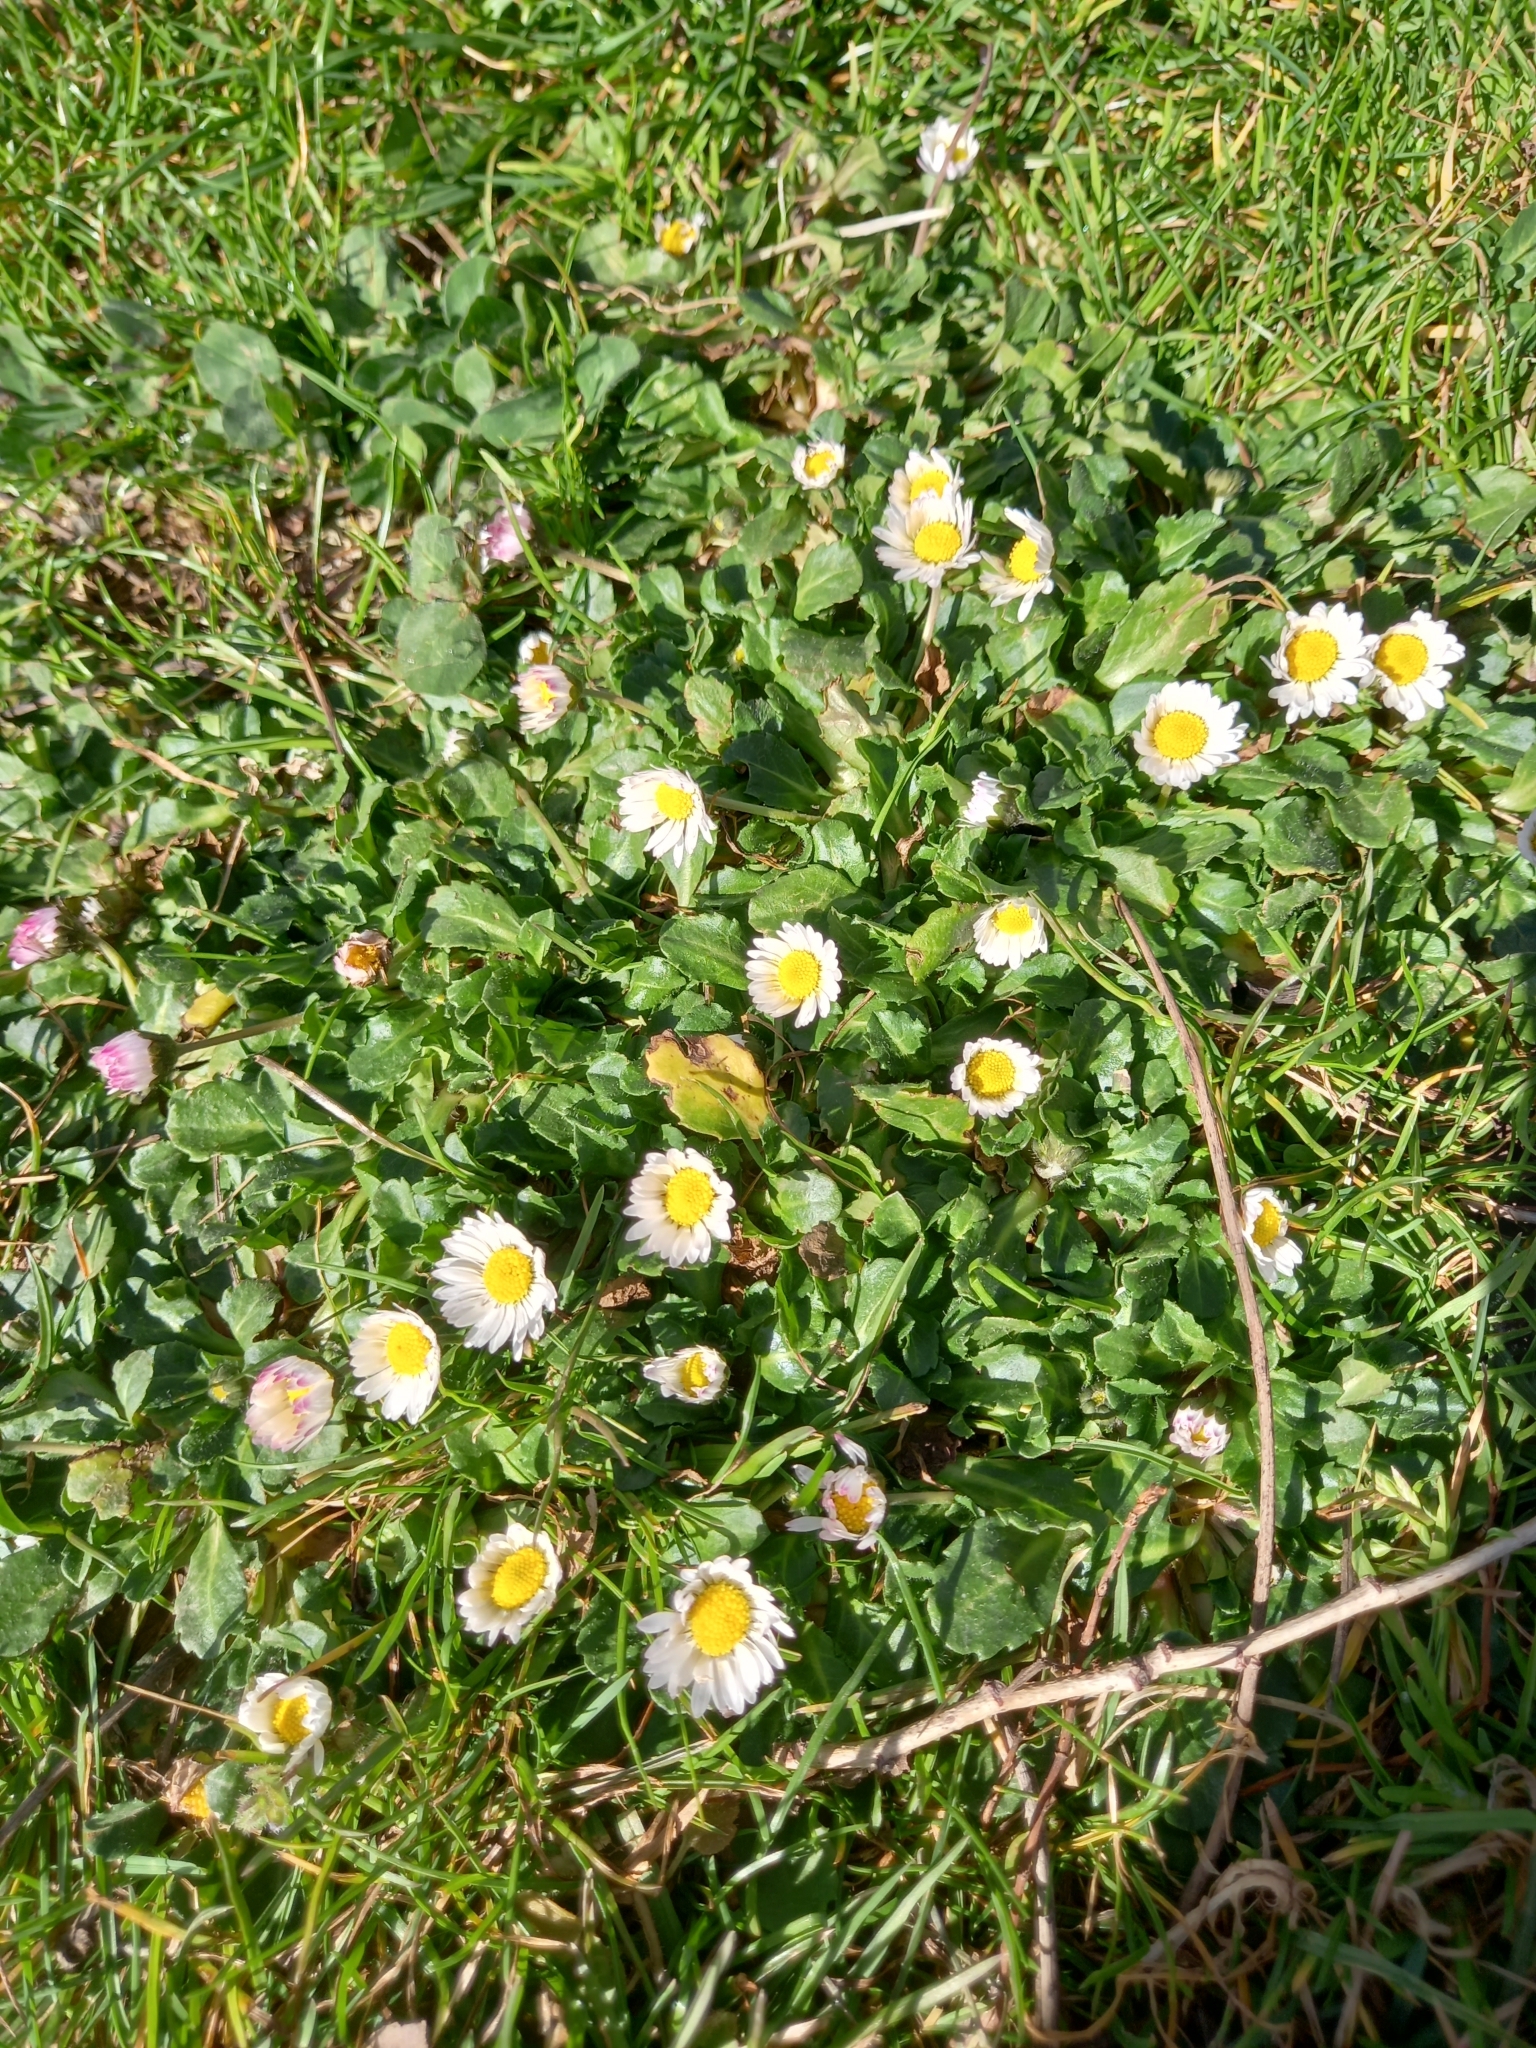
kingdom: Plantae
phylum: Tracheophyta
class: Magnoliopsida
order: Asterales
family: Asteraceae
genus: Bellis
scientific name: Bellis perennis
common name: Lawndaisy
